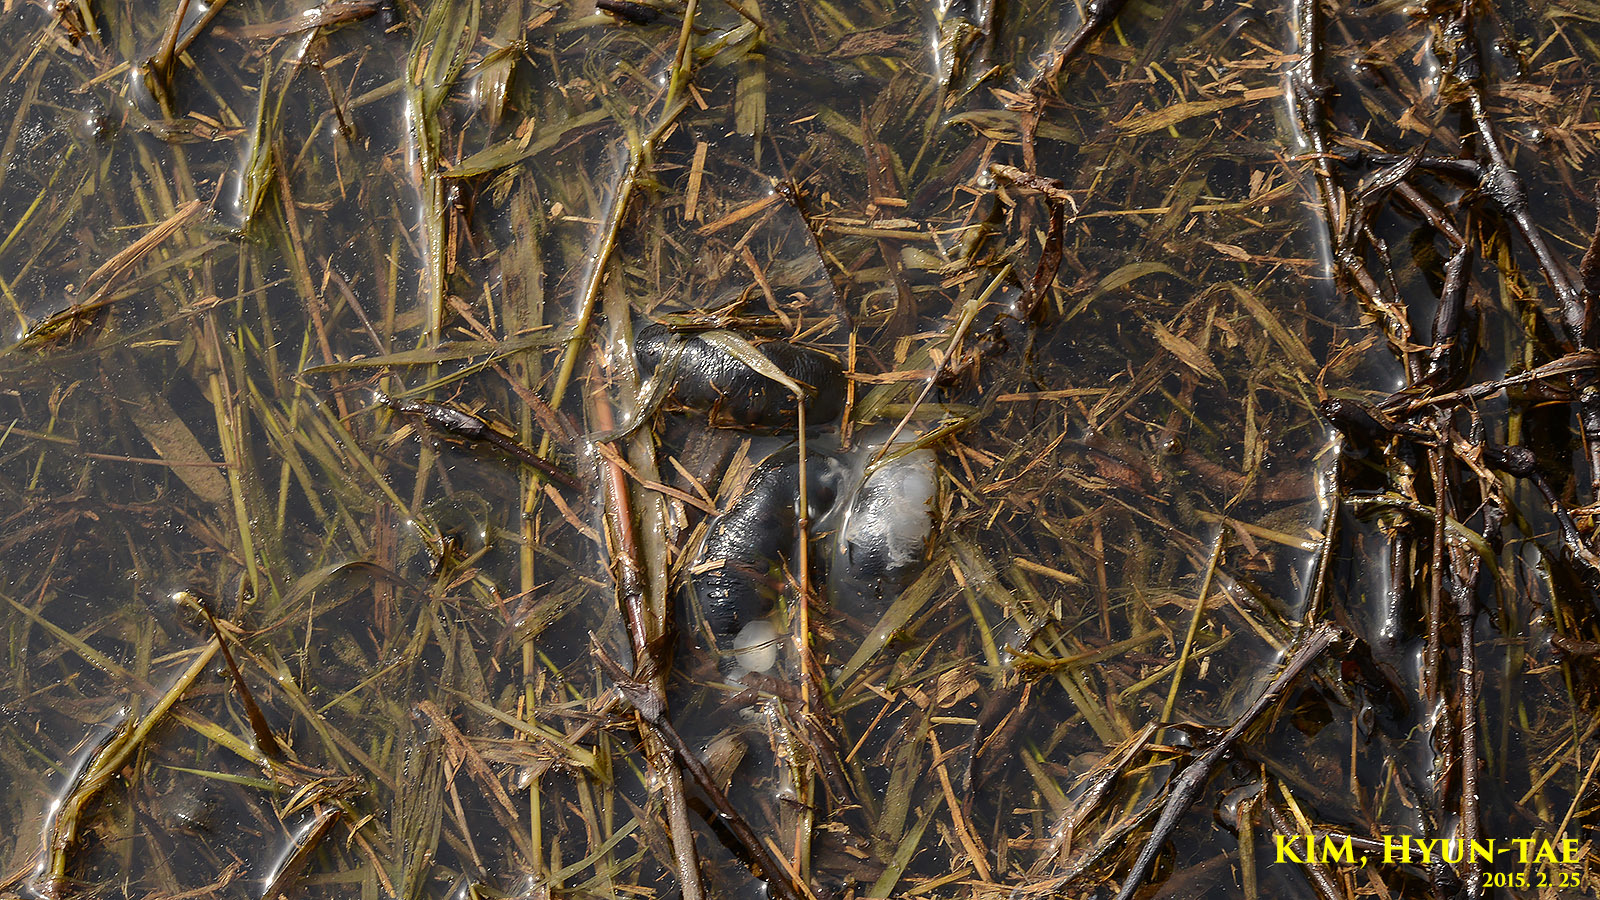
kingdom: Animalia
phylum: Chordata
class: Amphibia
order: Caudata
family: Hynobiidae
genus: Hynobius
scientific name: Hynobius leechii
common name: Gensan salamander
